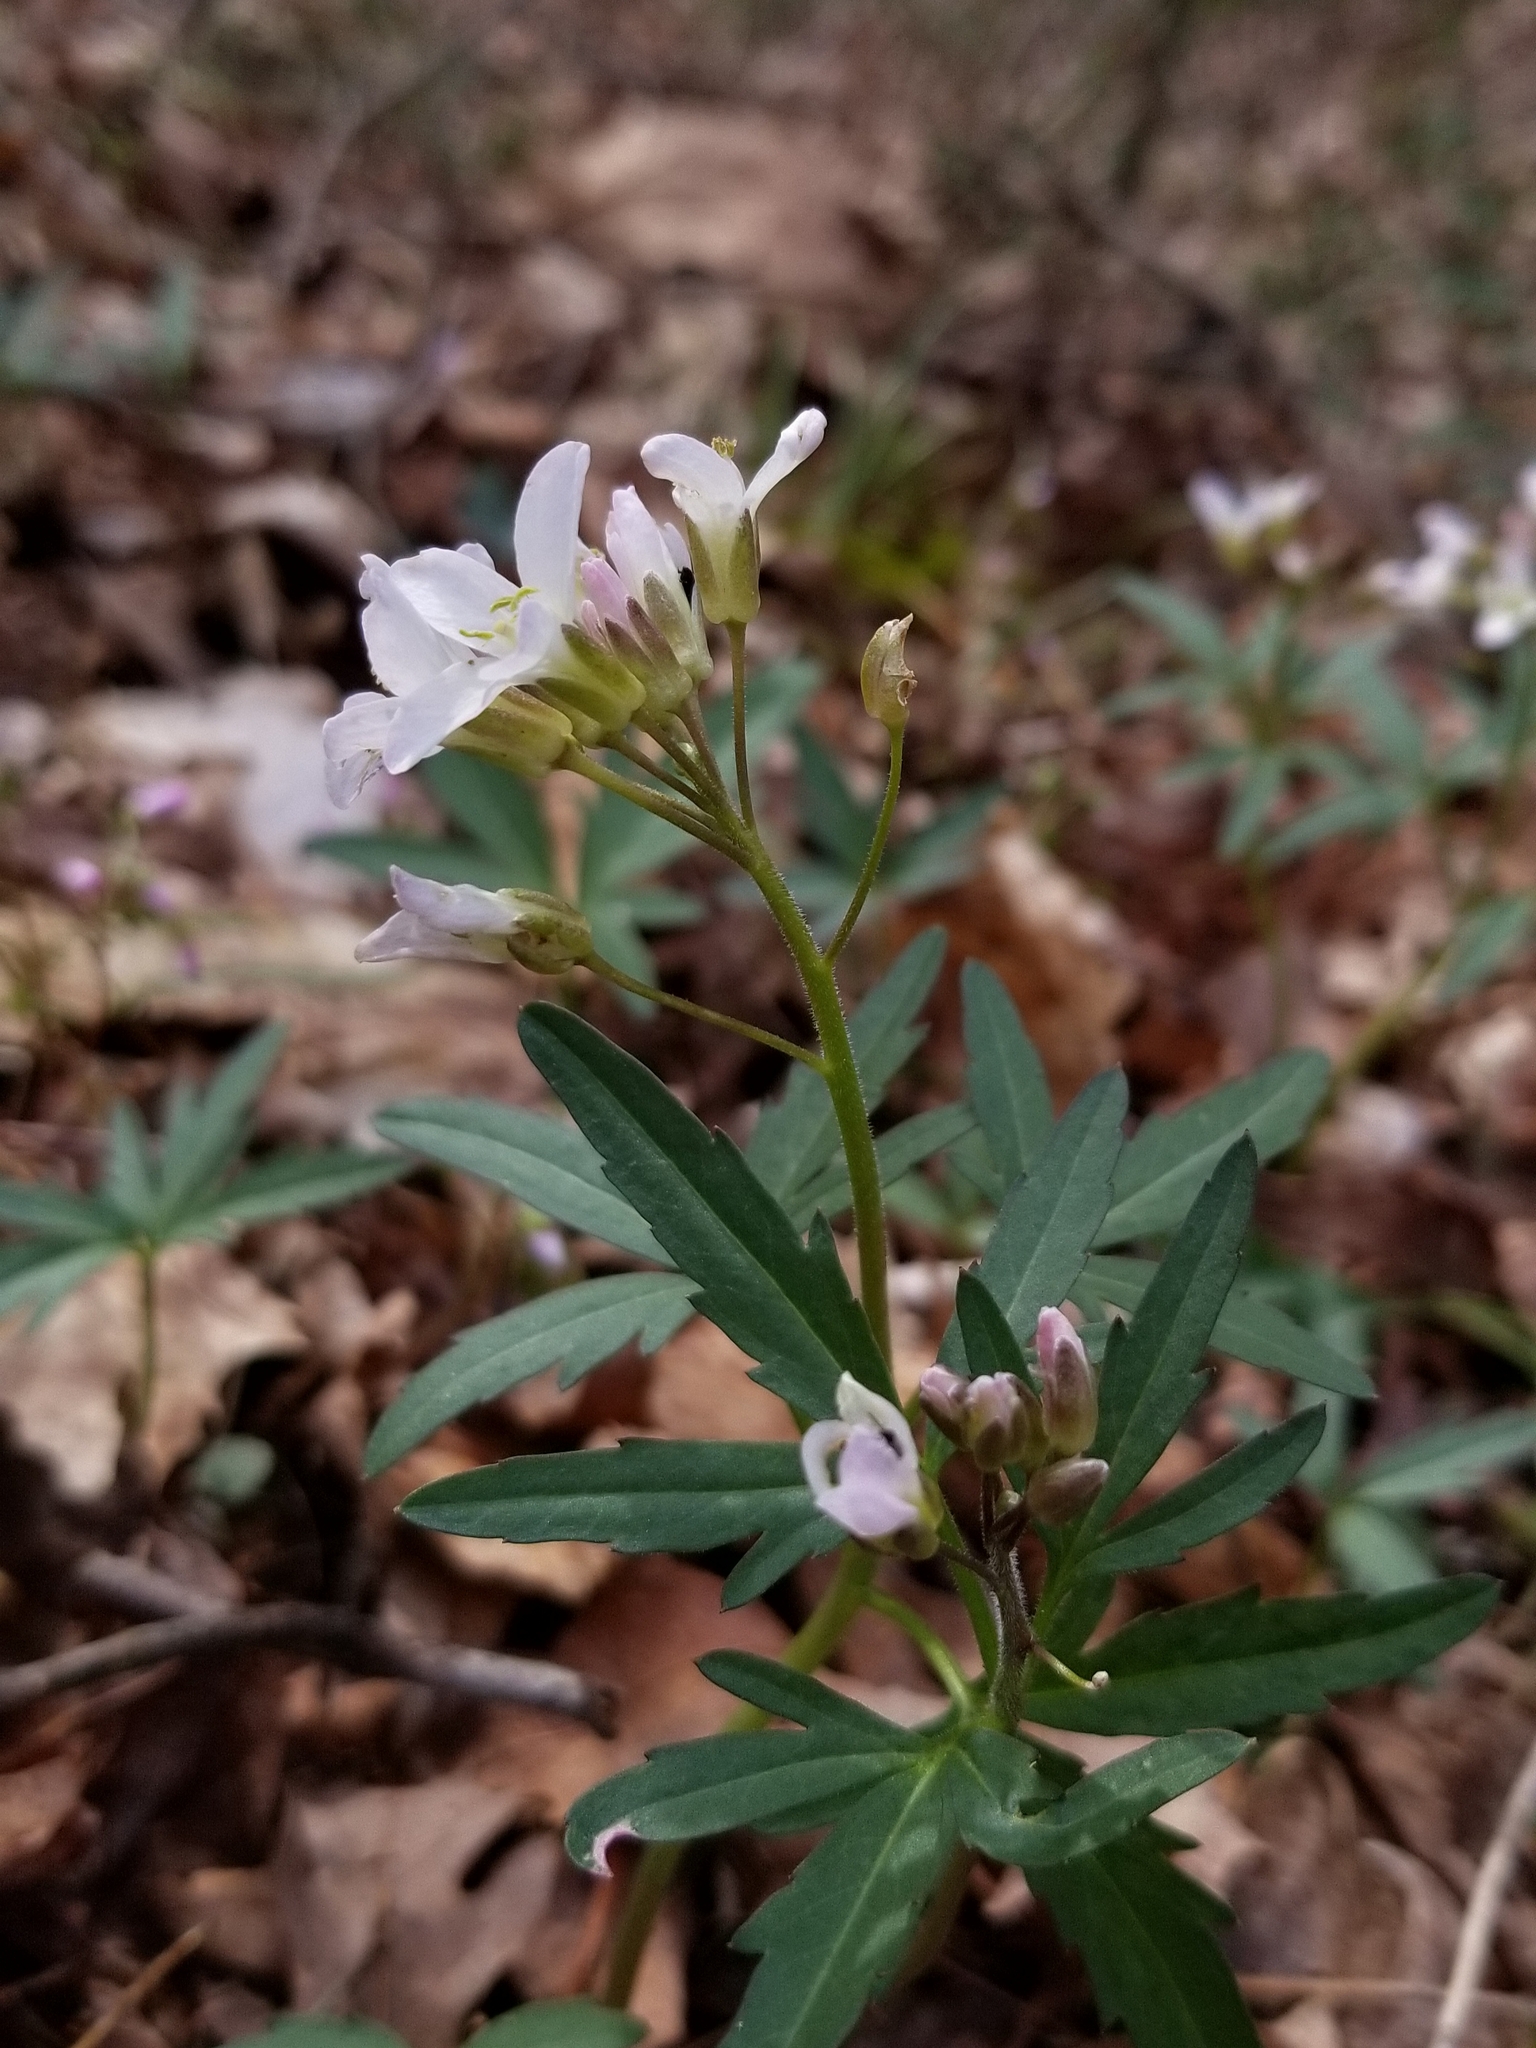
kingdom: Plantae
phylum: Tracheophyta
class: Magnoliopsida
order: Brassicales
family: Brassicaceae
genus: Cardamine
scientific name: Cardamine concatenata
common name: Cut-leaf toothcup
